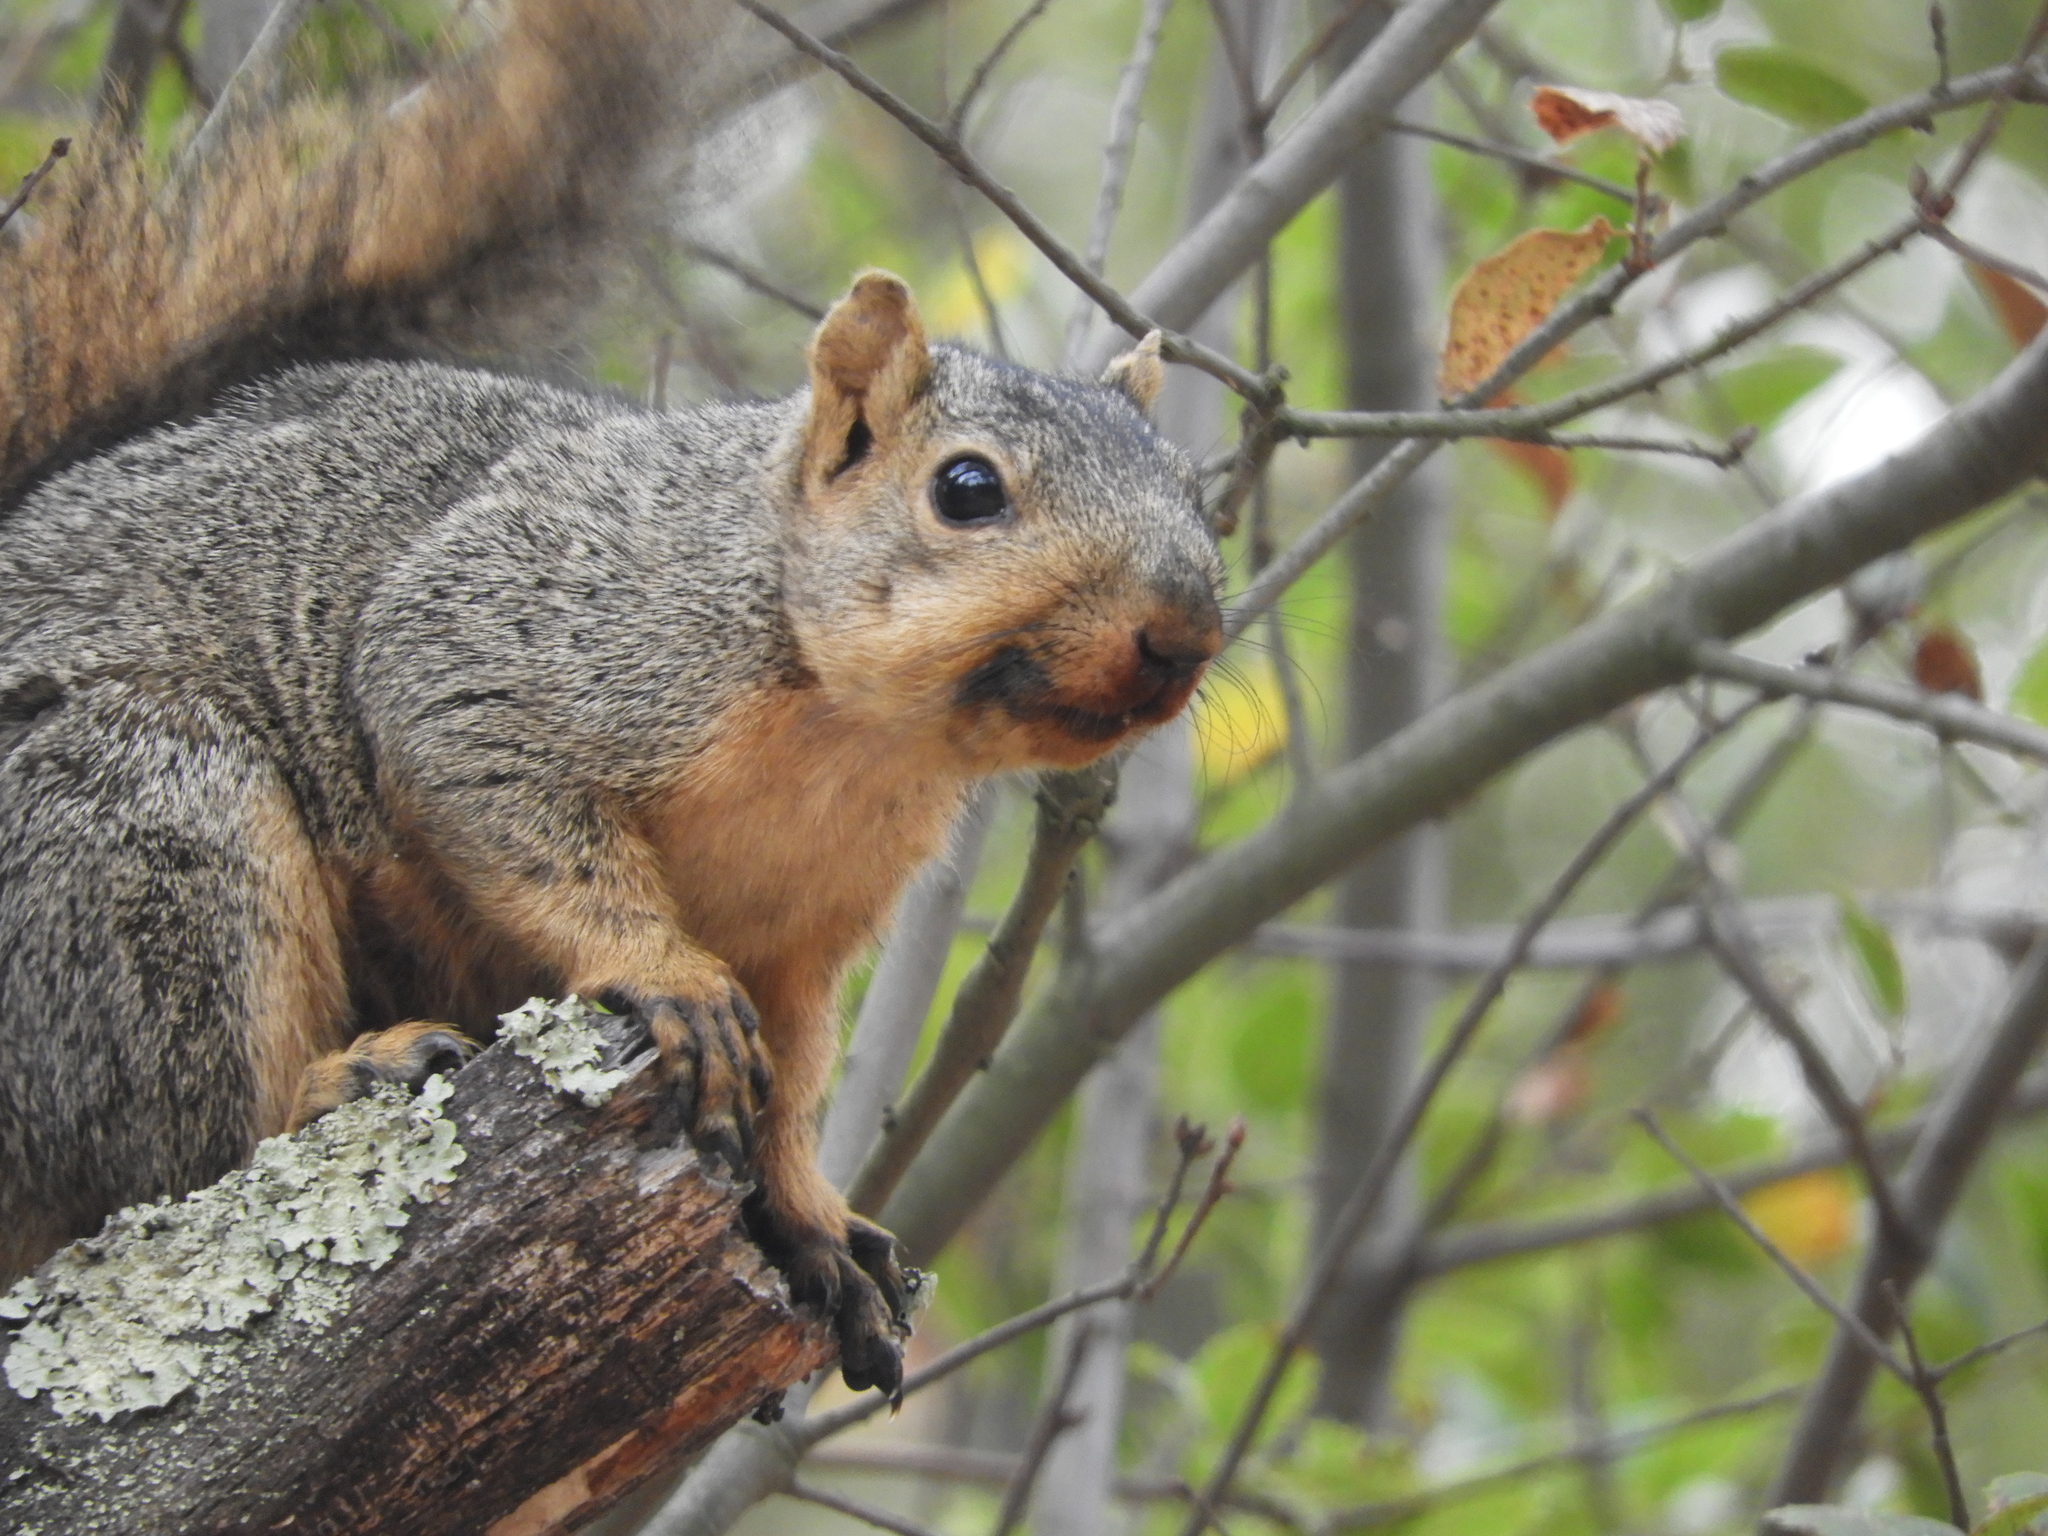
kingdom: Animalia
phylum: Chordata
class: Mammalia
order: Rodentia
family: Sciuridae
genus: Sciurus
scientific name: Sciurus niger
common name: Fox squirrel
